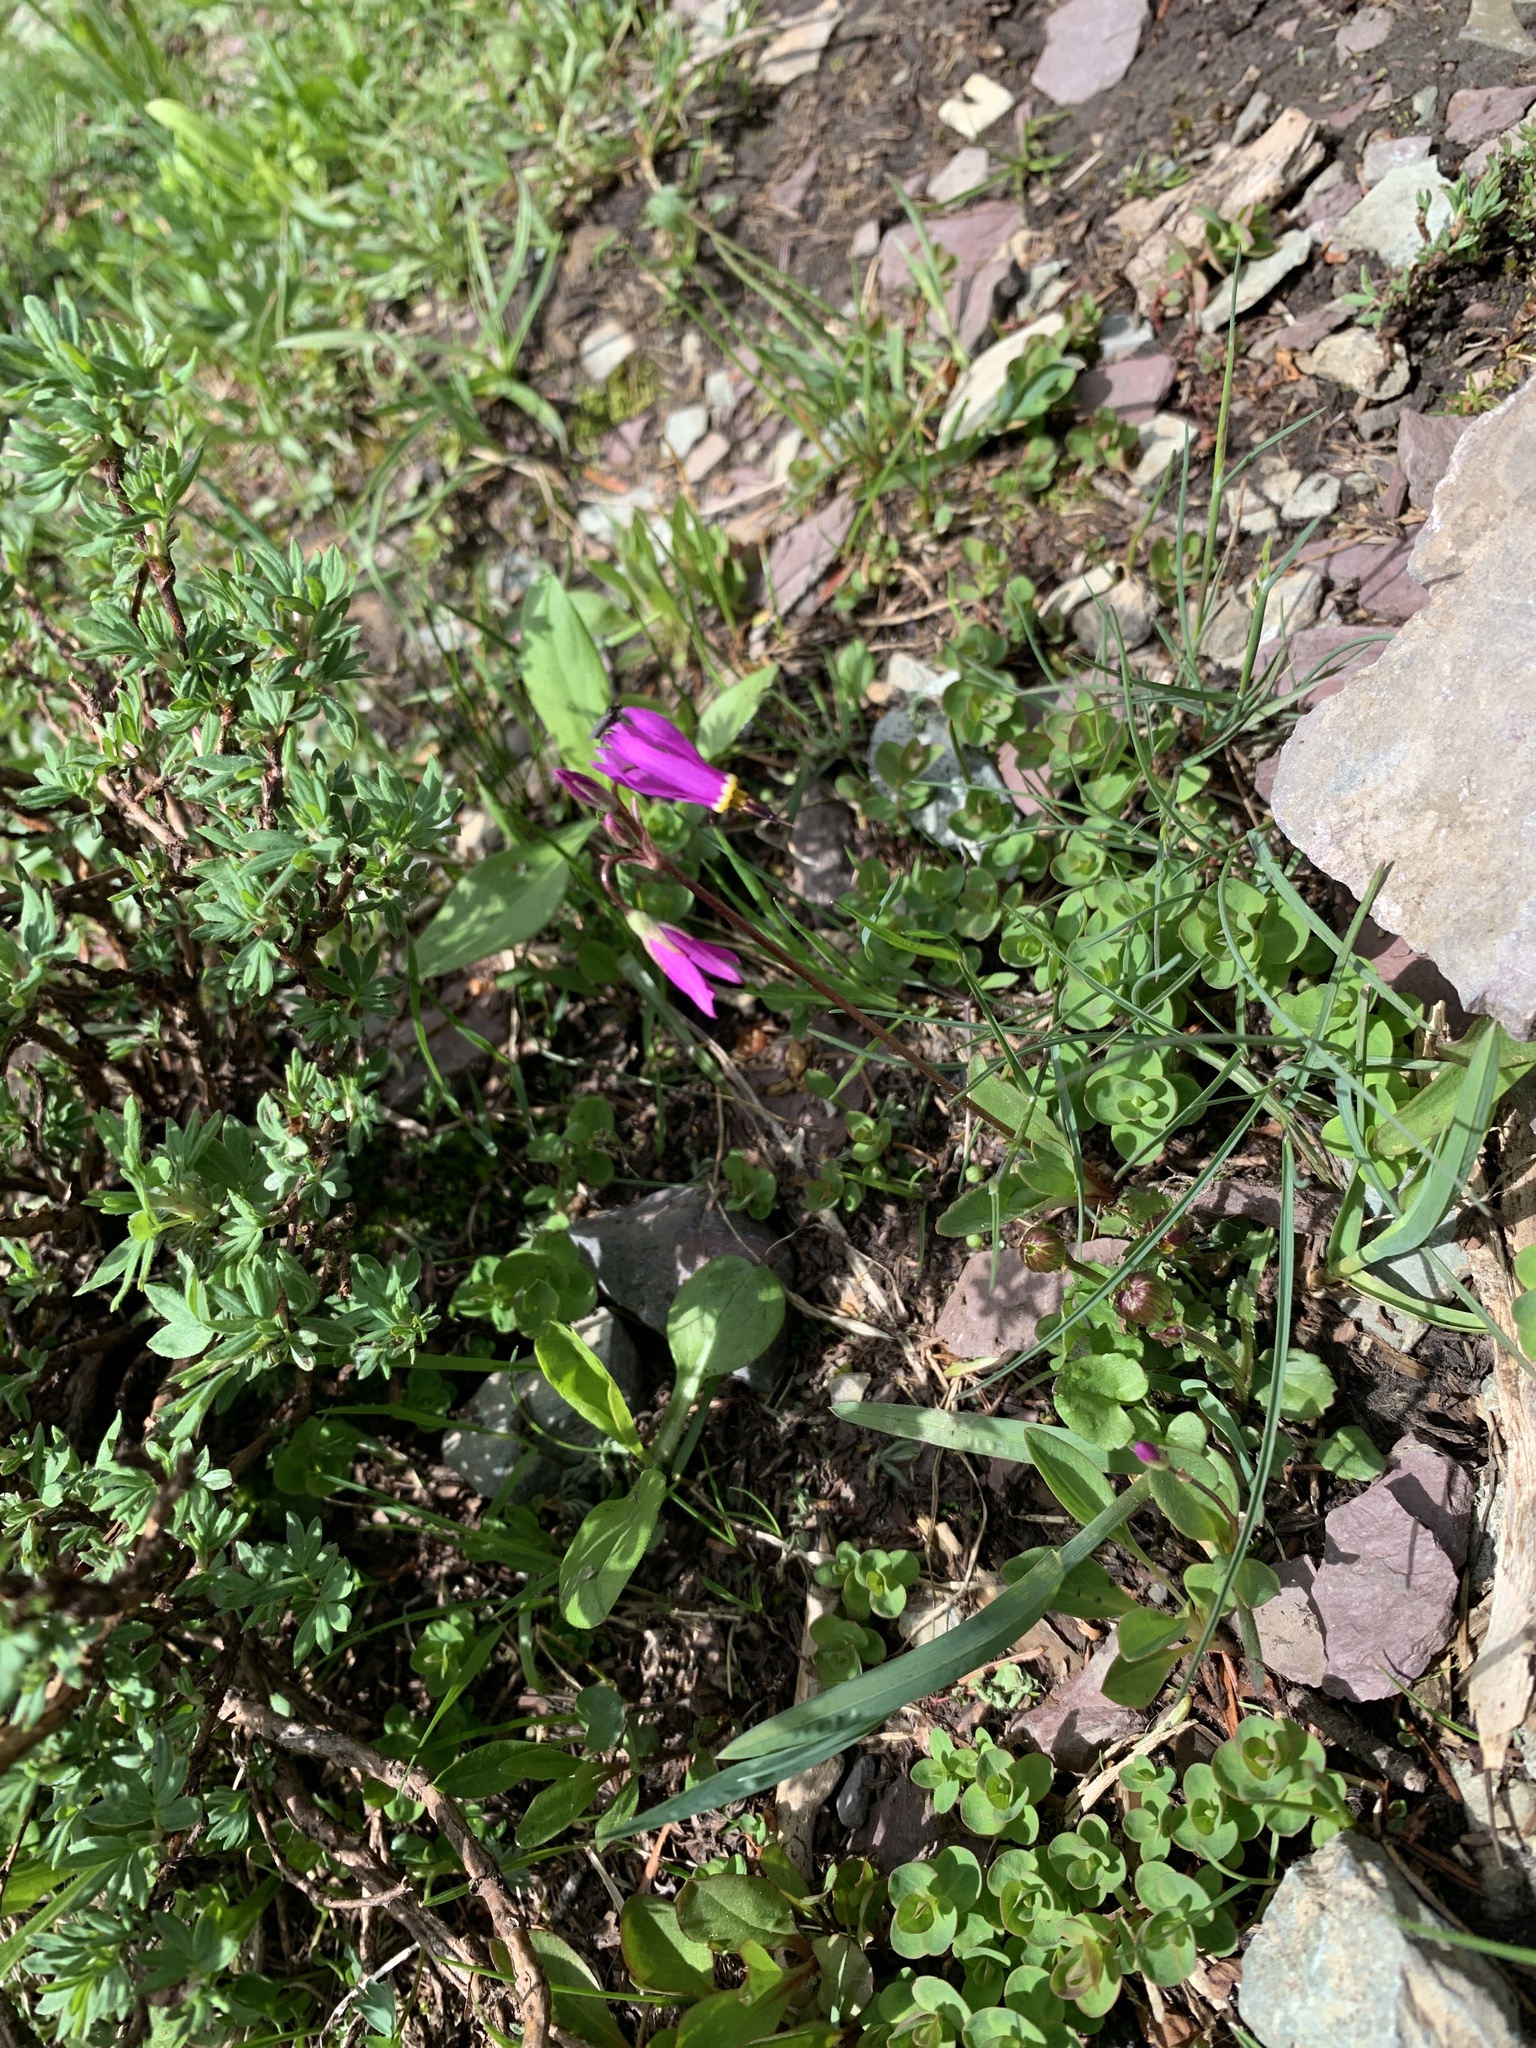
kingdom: Plantae
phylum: Tracheophyta
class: Magnoliopsida
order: Ericales
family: Primulaceae
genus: Dodecatheon
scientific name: Dodecatheon pulchellum
